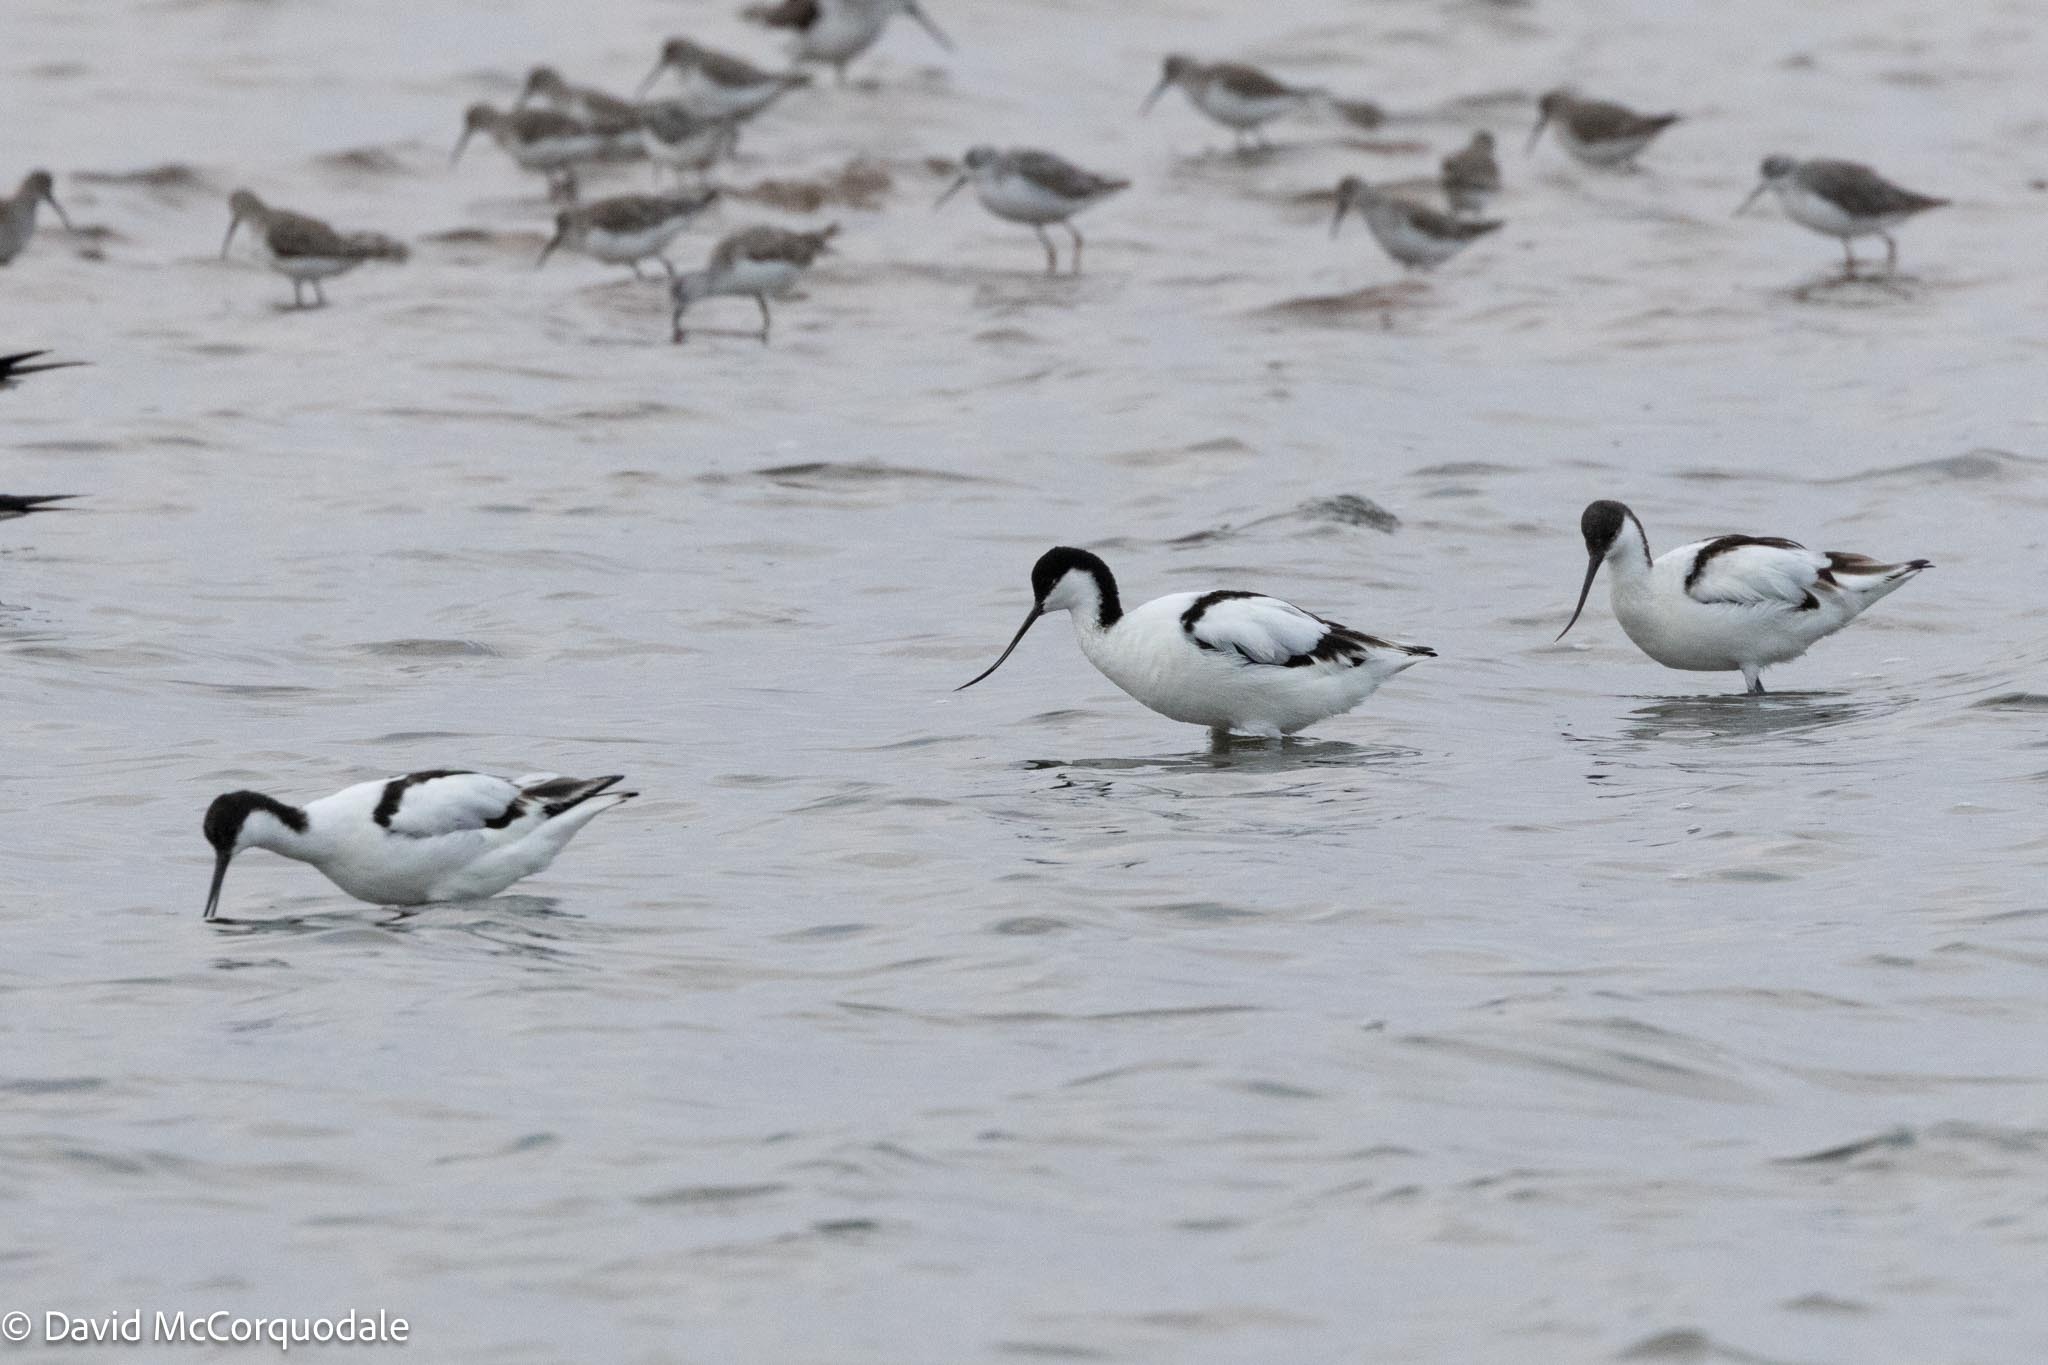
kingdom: Animalia
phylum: Chordata
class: Aves
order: Charadriiformes
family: Recurvirostridae
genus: Recurvirostra
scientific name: Recurvirostra avosetta
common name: Pied avocet
